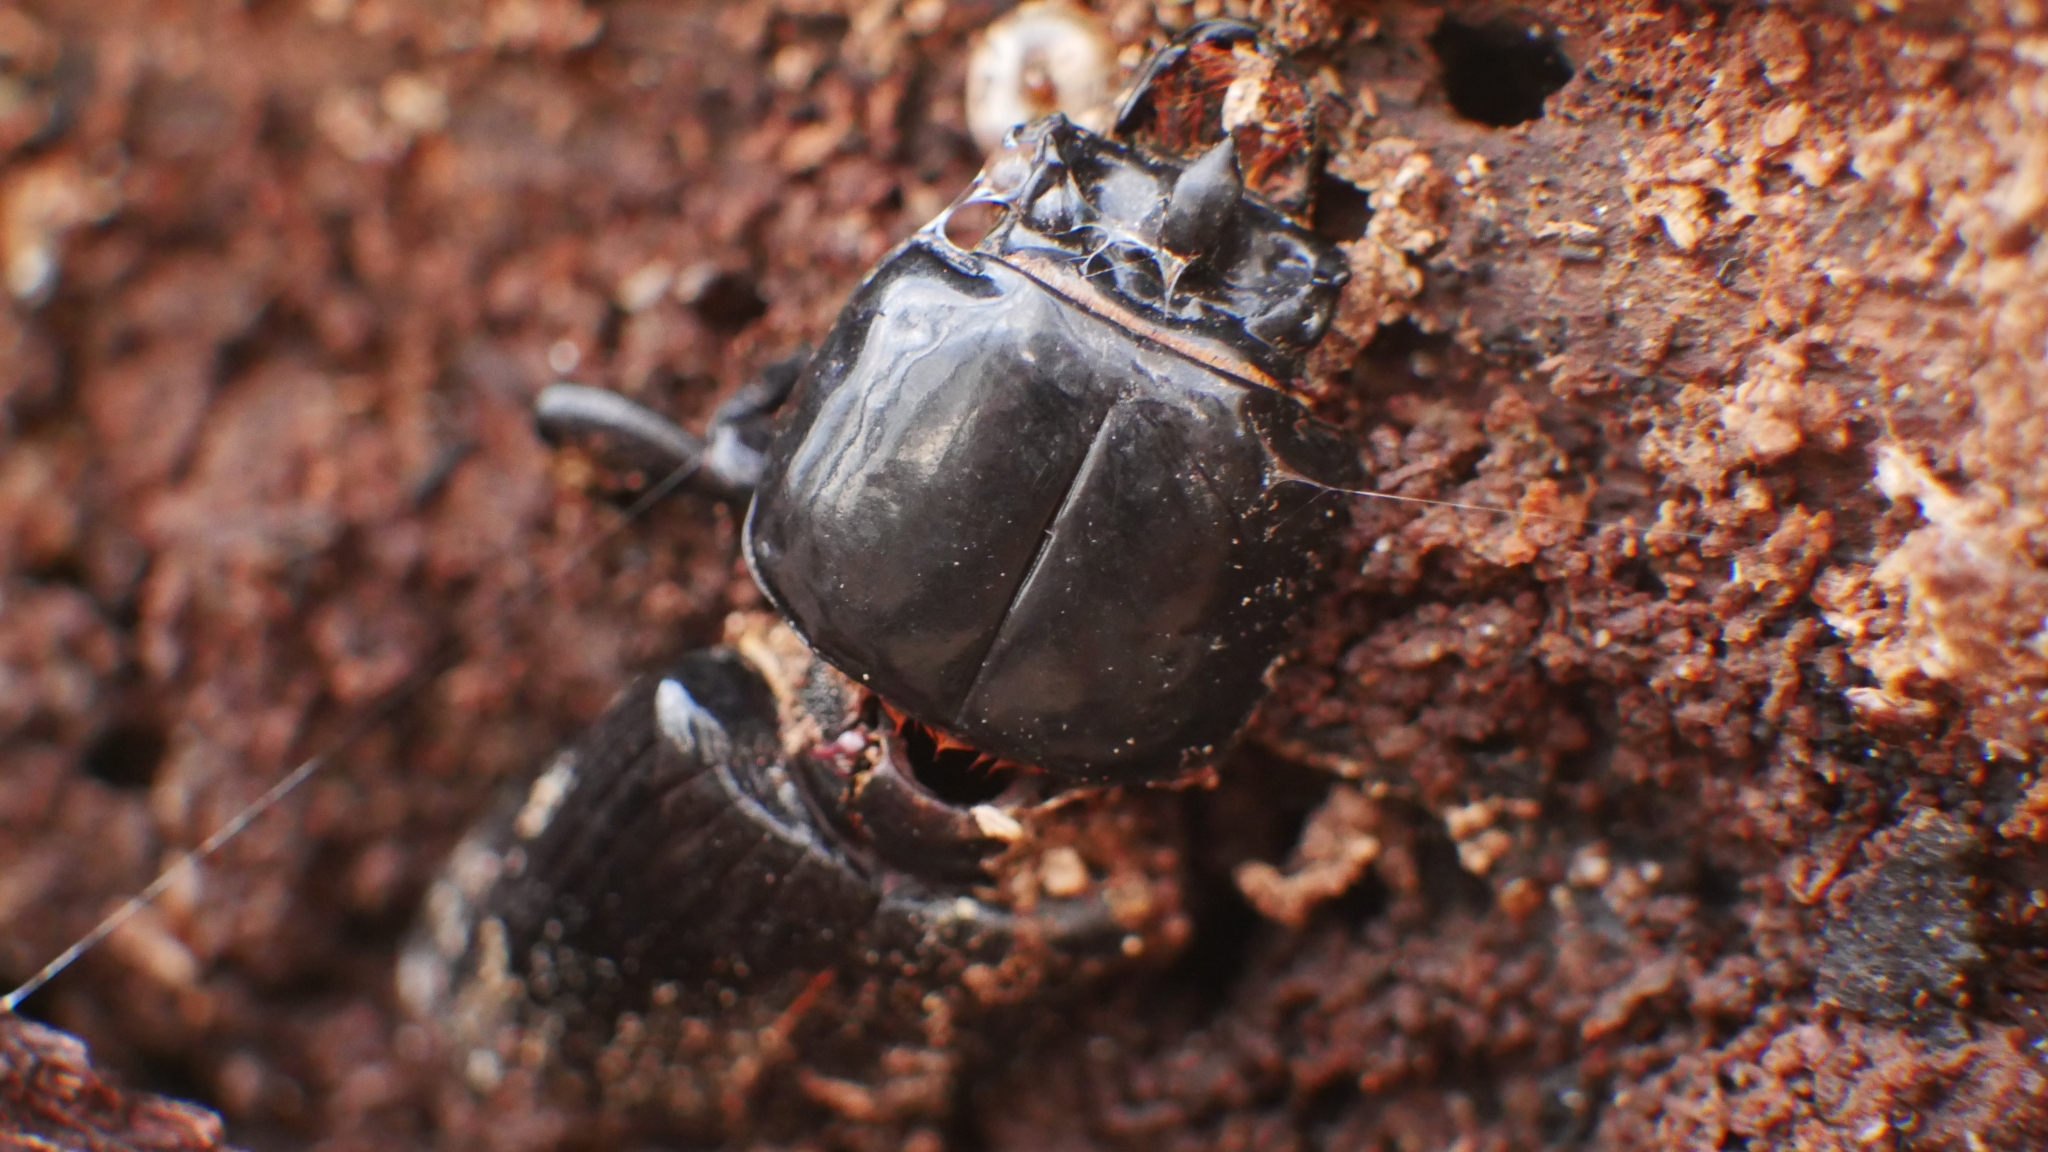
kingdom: Animalia
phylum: Arthropoda
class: Insecta
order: Coleoptera
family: Passalidae
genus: Odontotaenius
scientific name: Odontotaenius disjunctus
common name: Patent leather beetle
